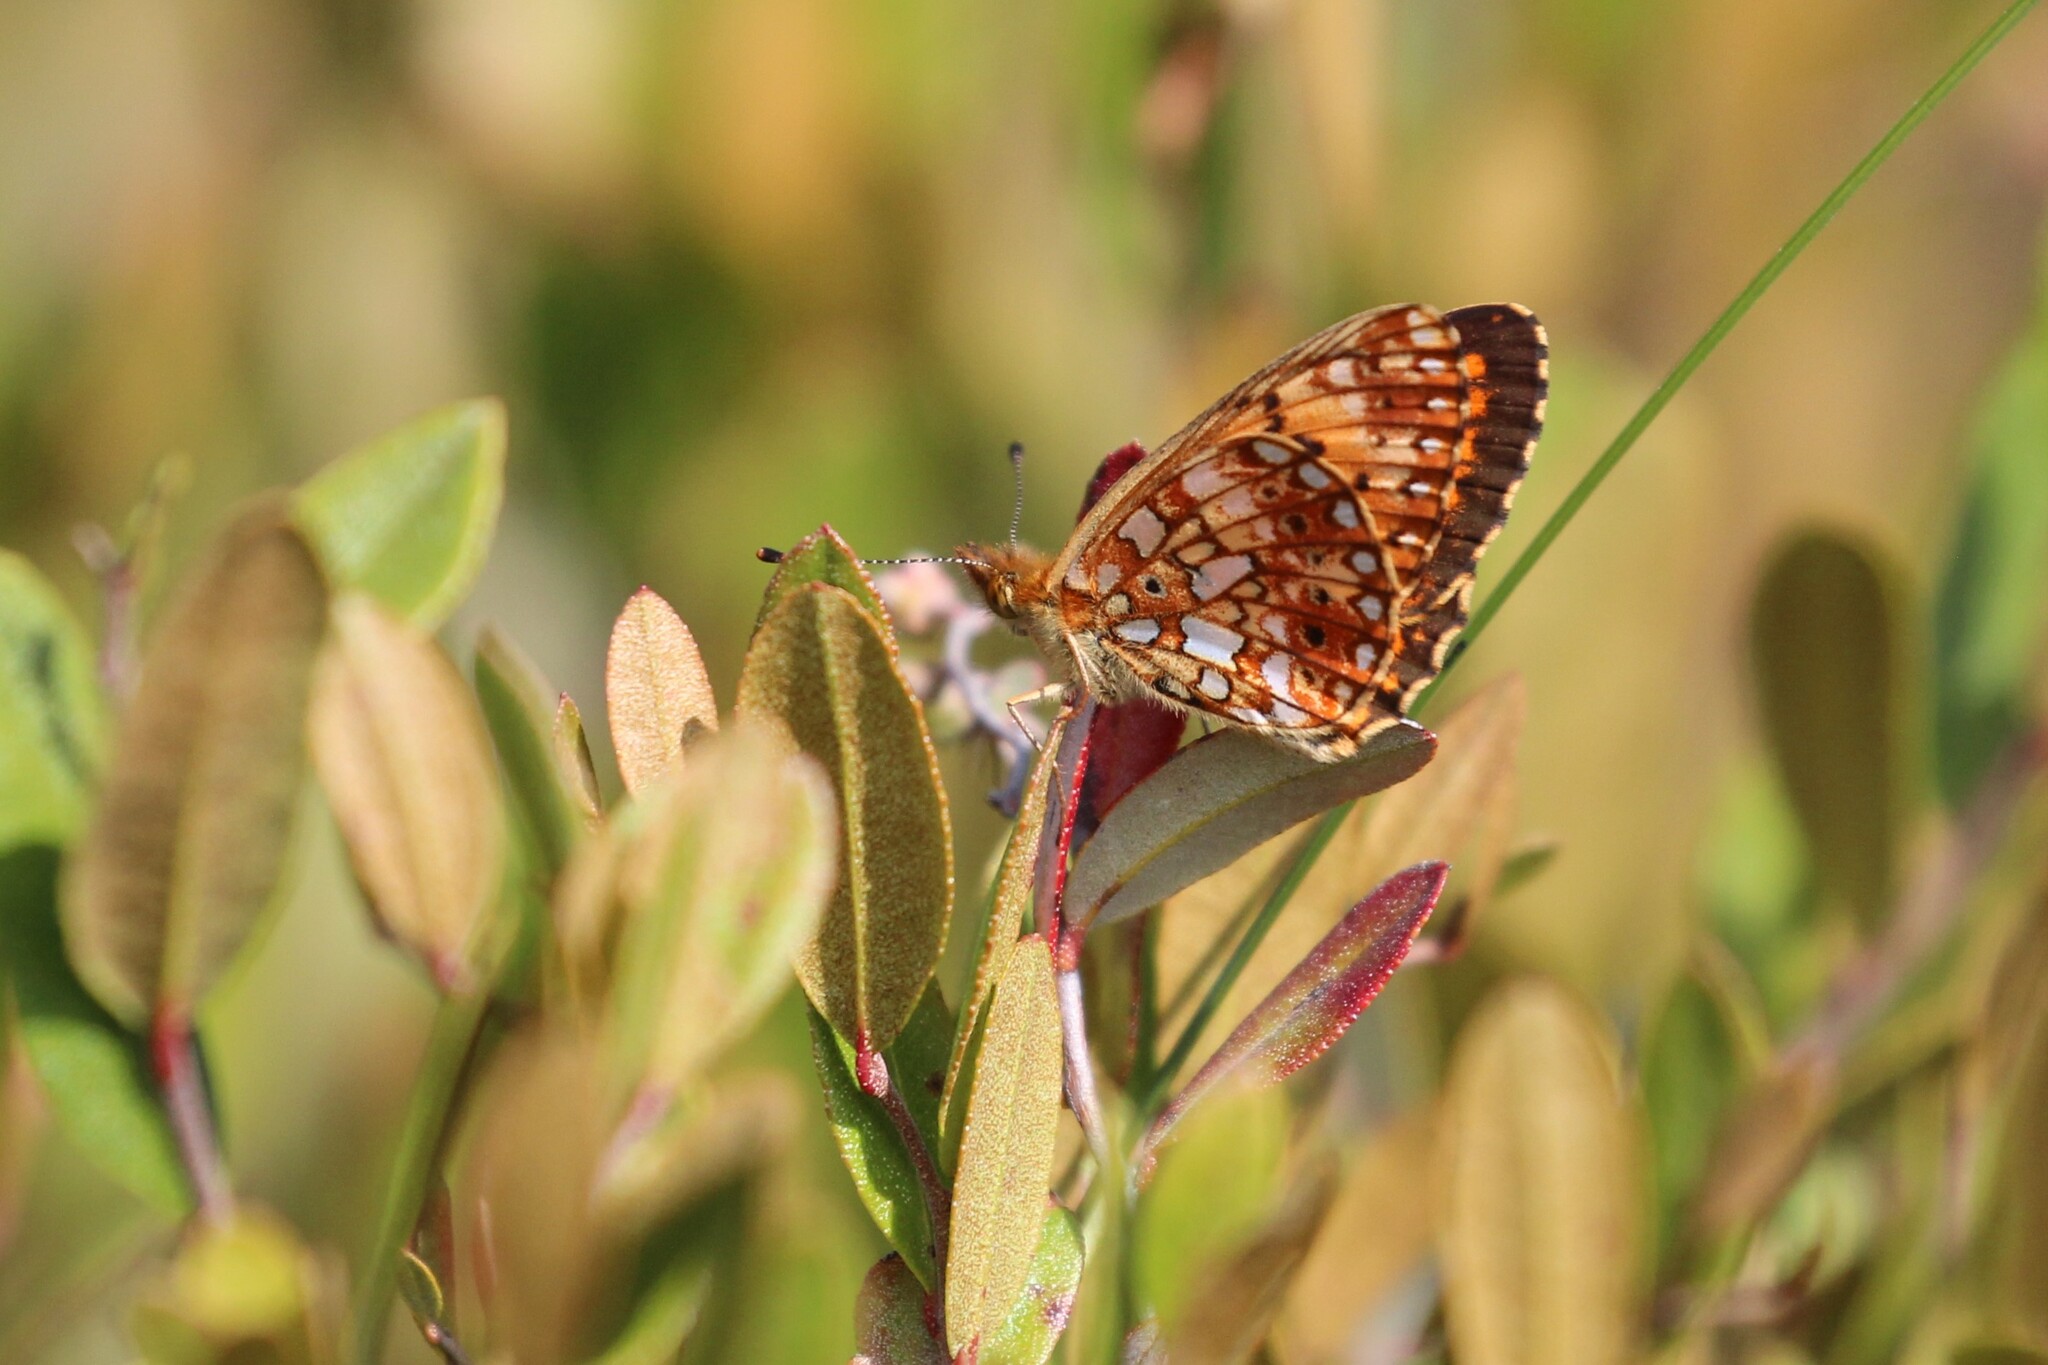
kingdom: Animalia
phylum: Arthropoda
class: Insecta
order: Lepidoptera
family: Nymphalidae
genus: Boloria
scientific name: Boloria
